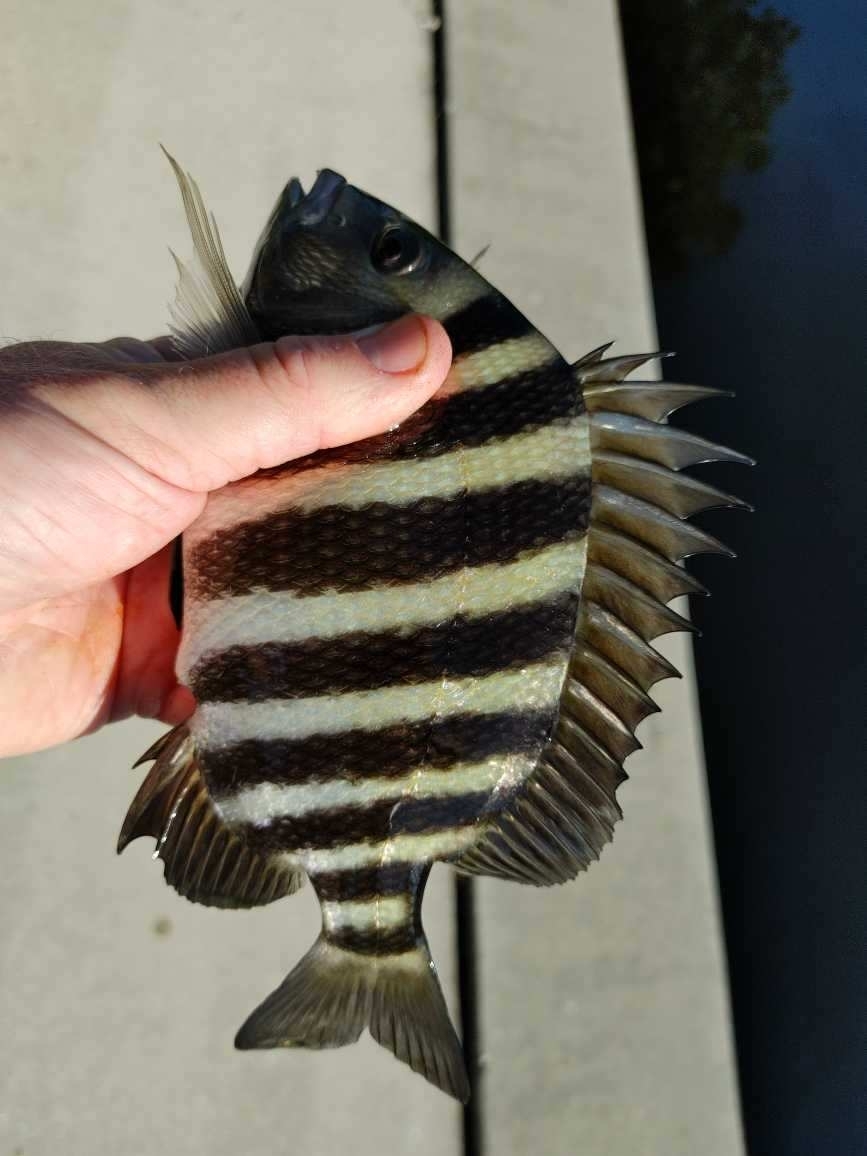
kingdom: Animalia
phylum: Chordata
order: Perciformes
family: Sparidae
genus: Archosargus
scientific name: Archosargus probatocephalus
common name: Sheepshead
